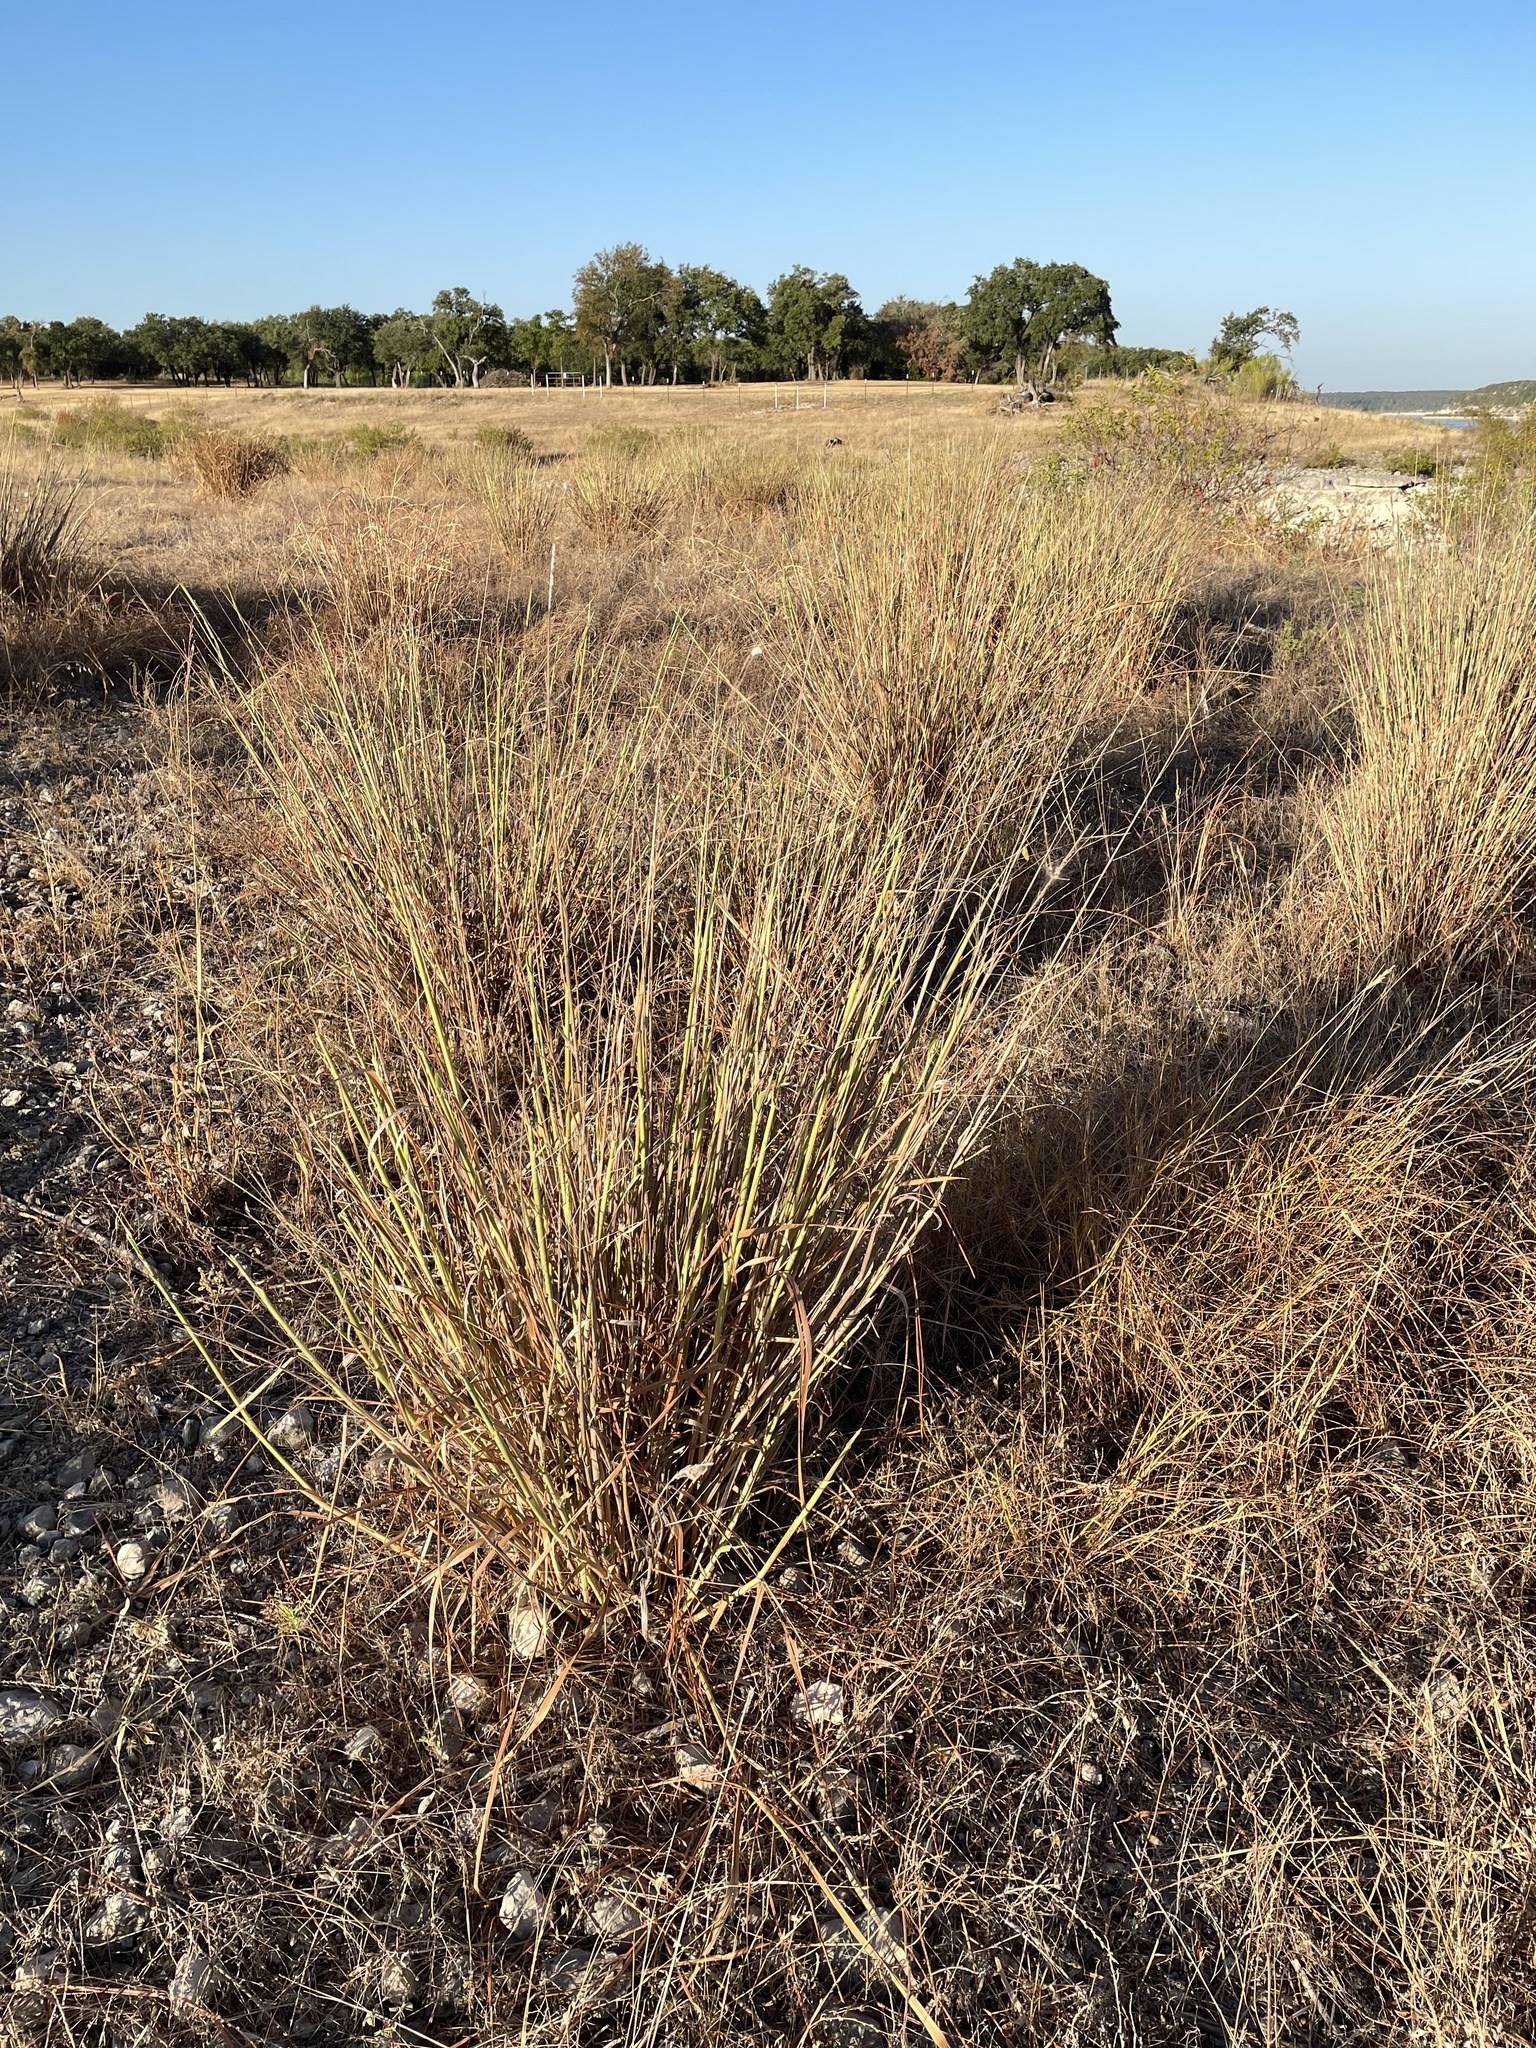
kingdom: Plantae
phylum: Tracheophyta
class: Liliopsida
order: Poales
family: Poaceae
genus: Panicum
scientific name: Panicum virgatum
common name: Switchgrass
